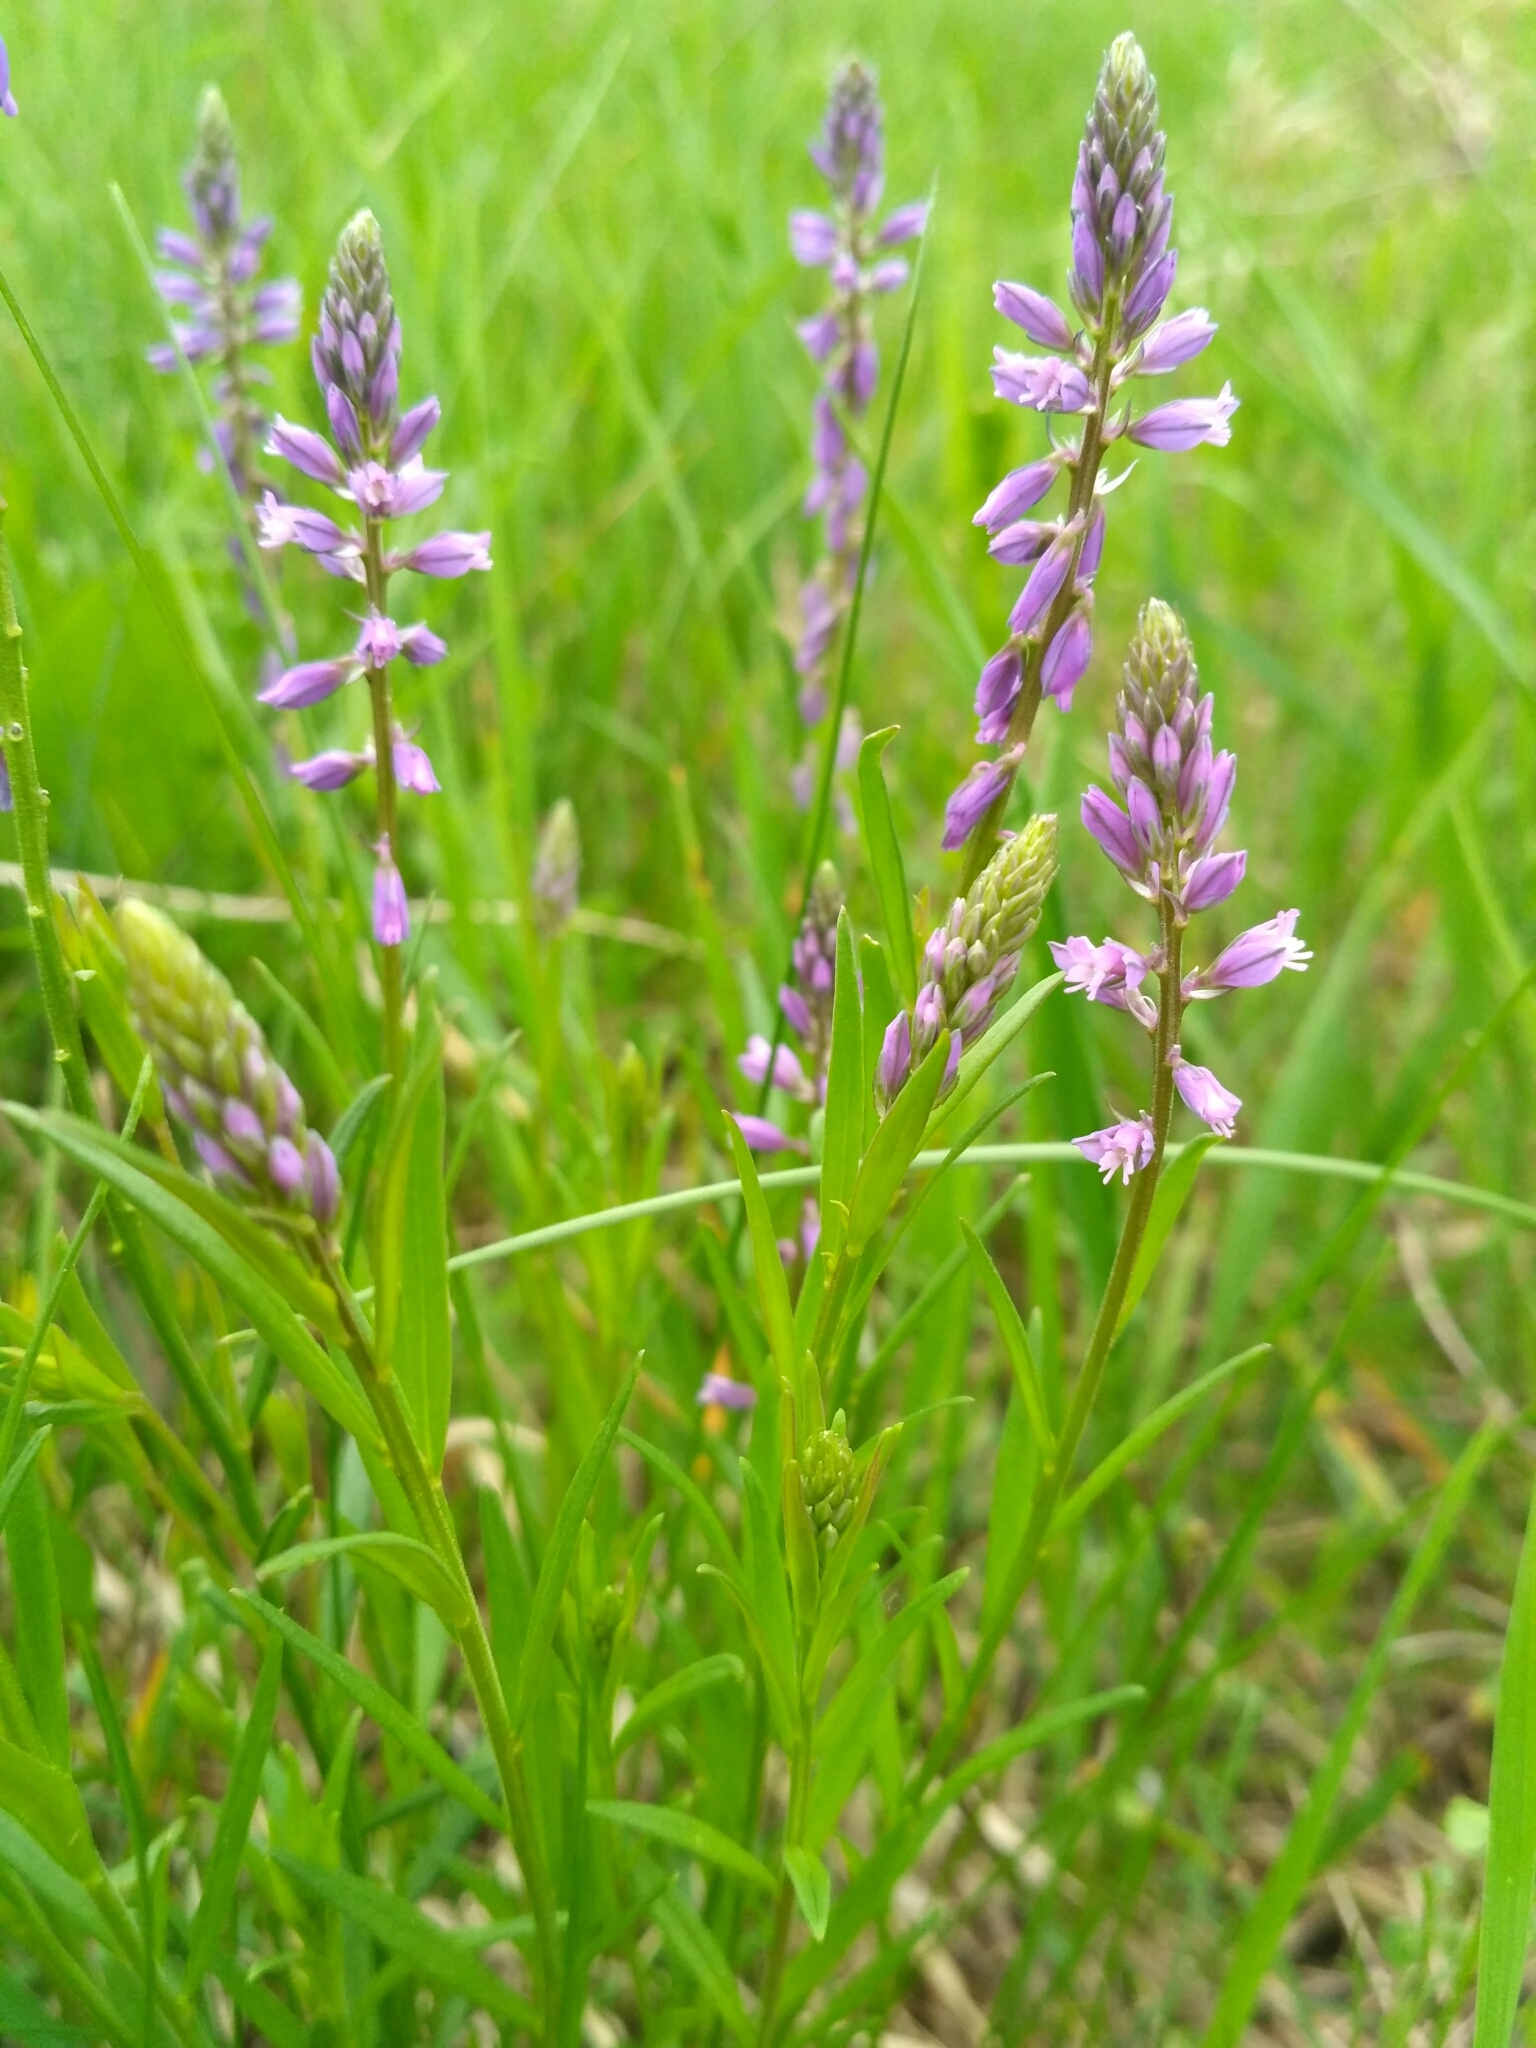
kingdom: Plantae
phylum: Tracheophyta
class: Magnoliopsida
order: Fabales
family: Polygalaceae
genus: Polygala
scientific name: Polygala comosa
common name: Tufted milkwort
